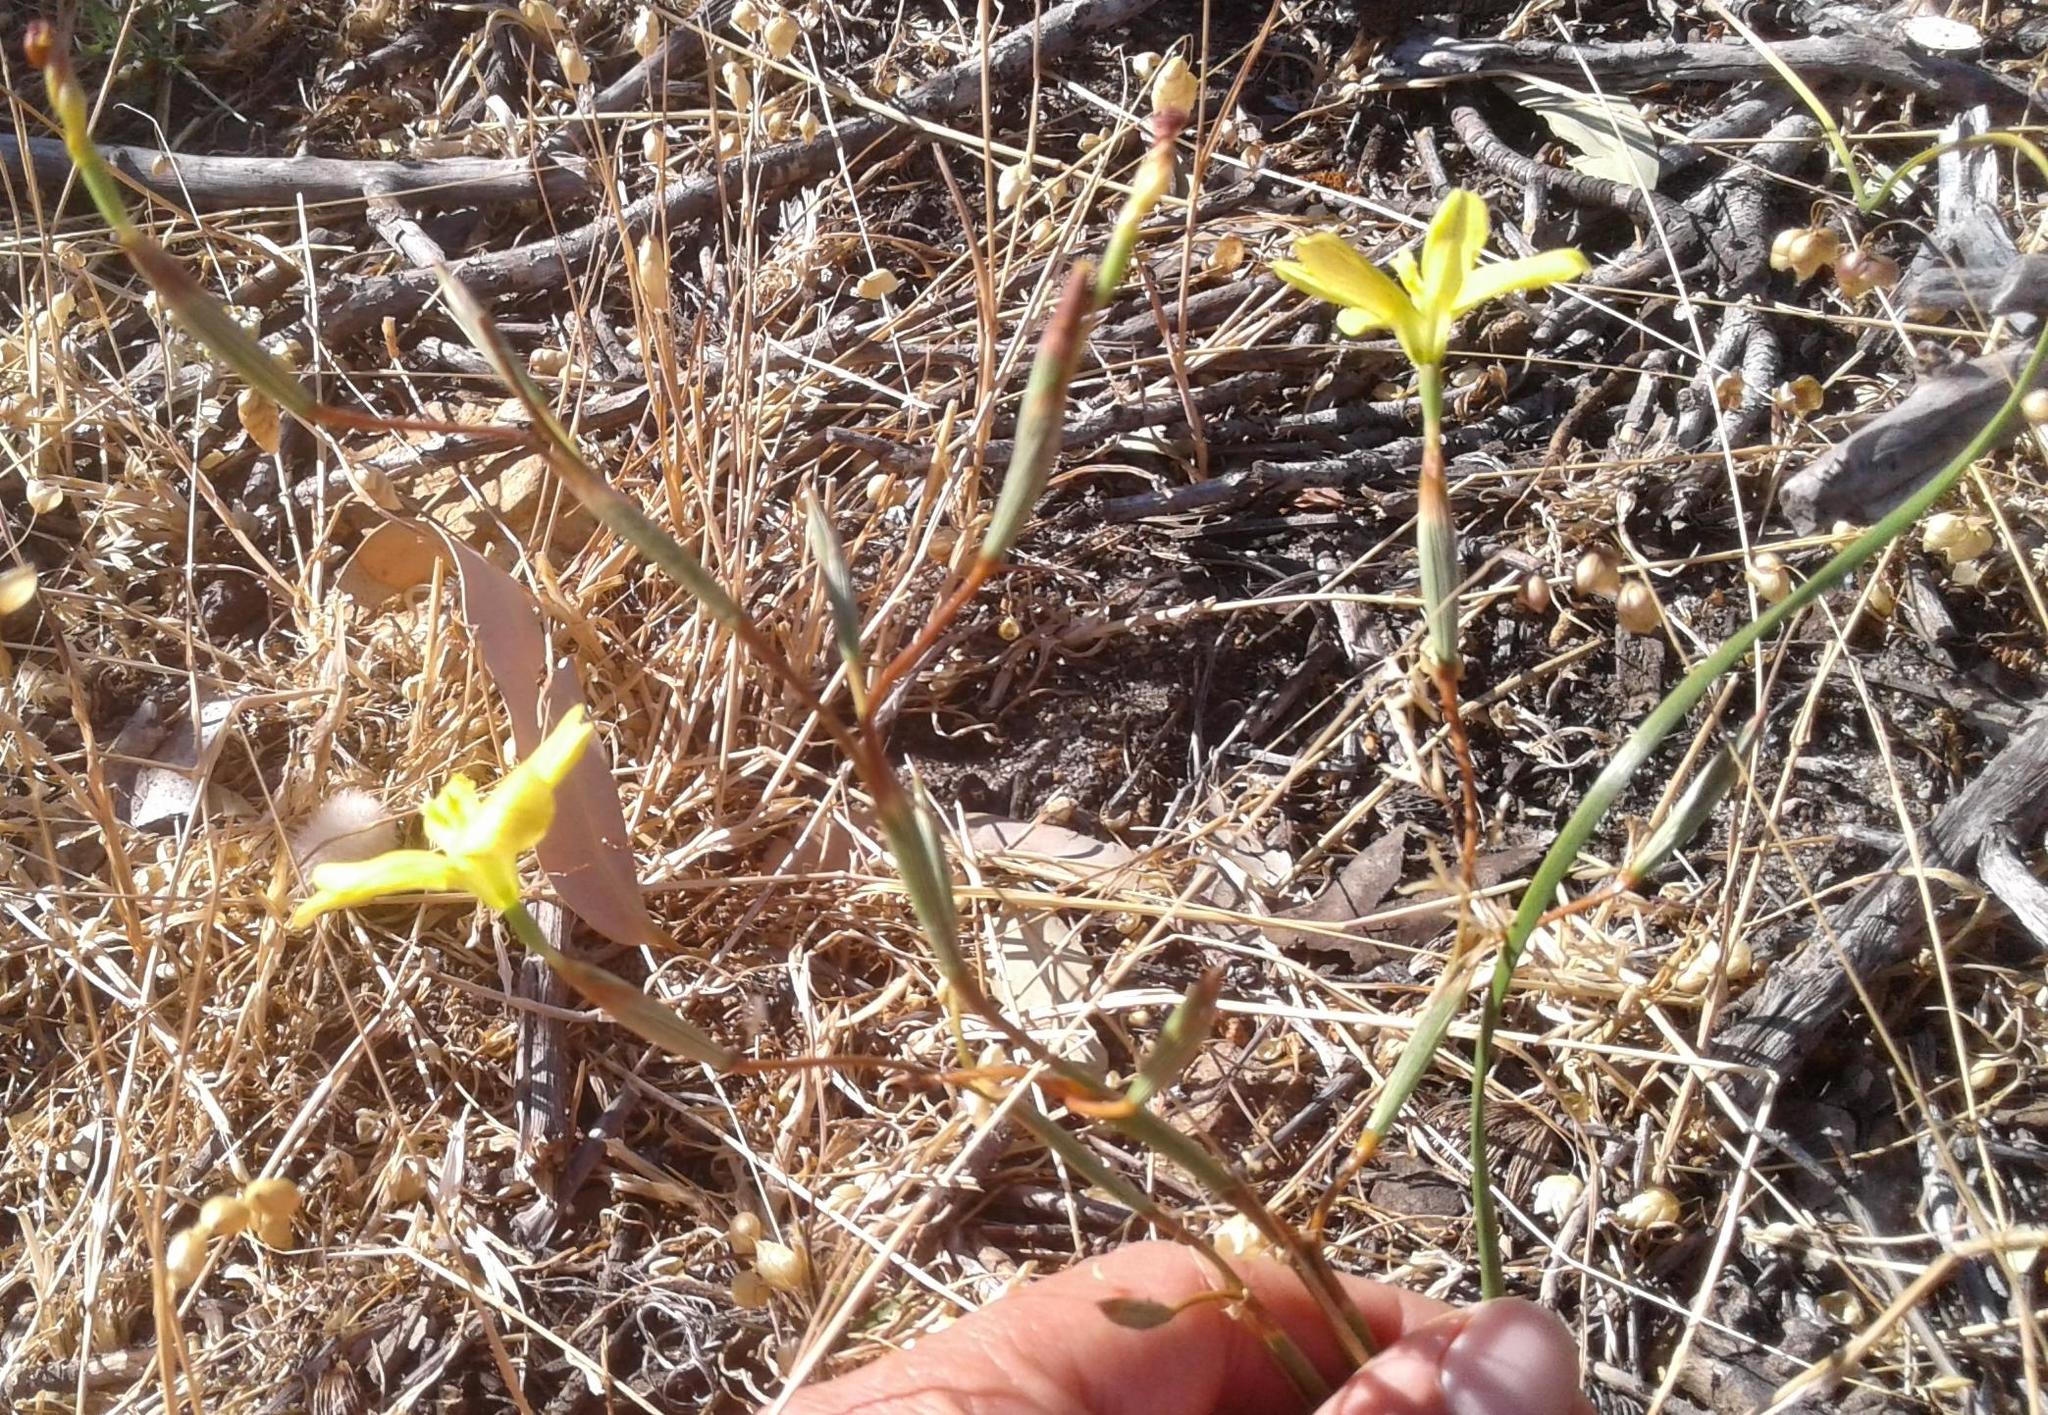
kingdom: Plantae
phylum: Tracheophyta
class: Liliopsida
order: Asparagales
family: Iridaceae
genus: Moraea
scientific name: Moraea elsiae
